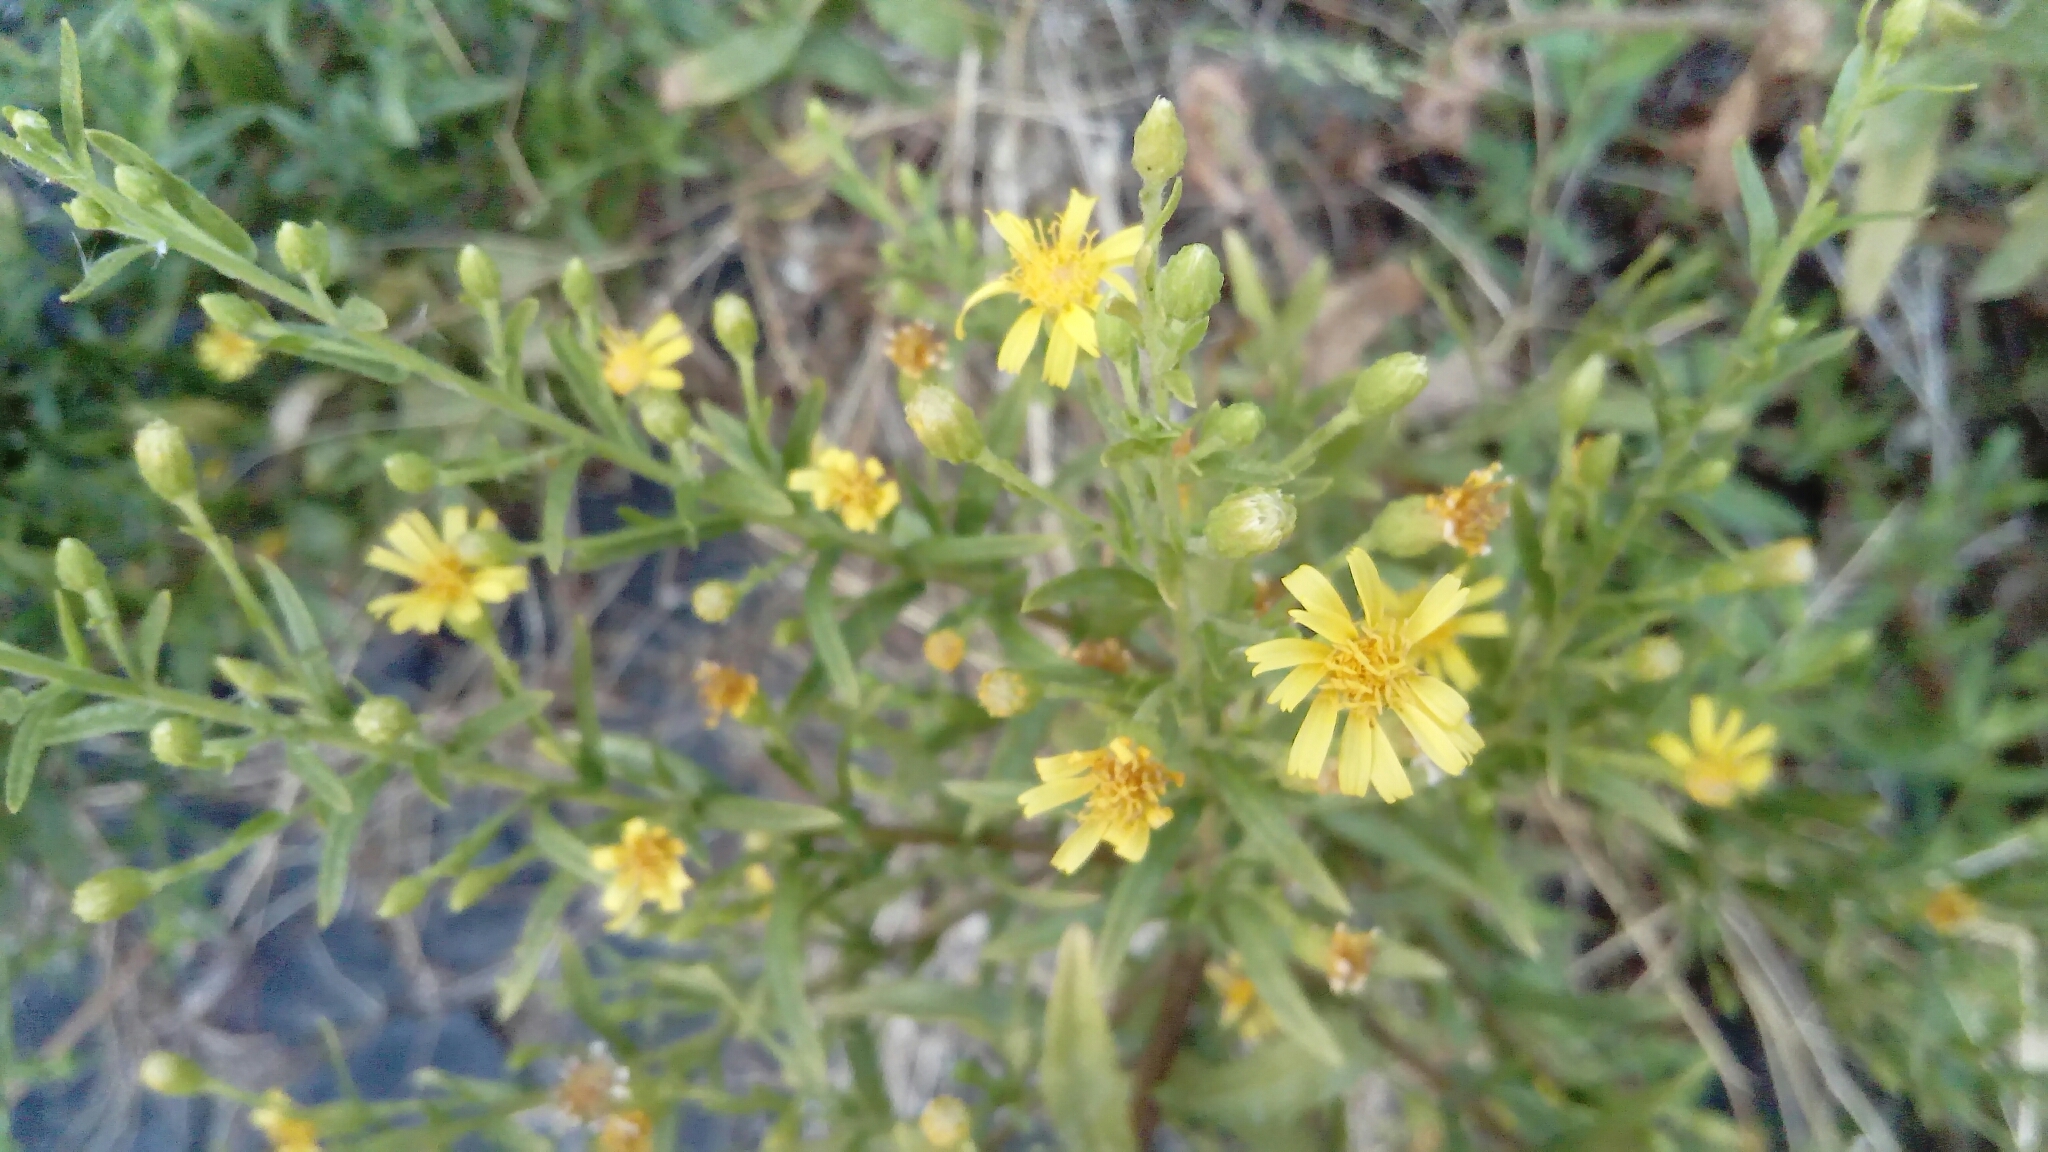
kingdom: Plantae
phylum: Tracheophyta
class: Magnoliopsida
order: Asterales
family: Asteraceae
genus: Dittrichia
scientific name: Dittrichia viscosa
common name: Woody fleabane
